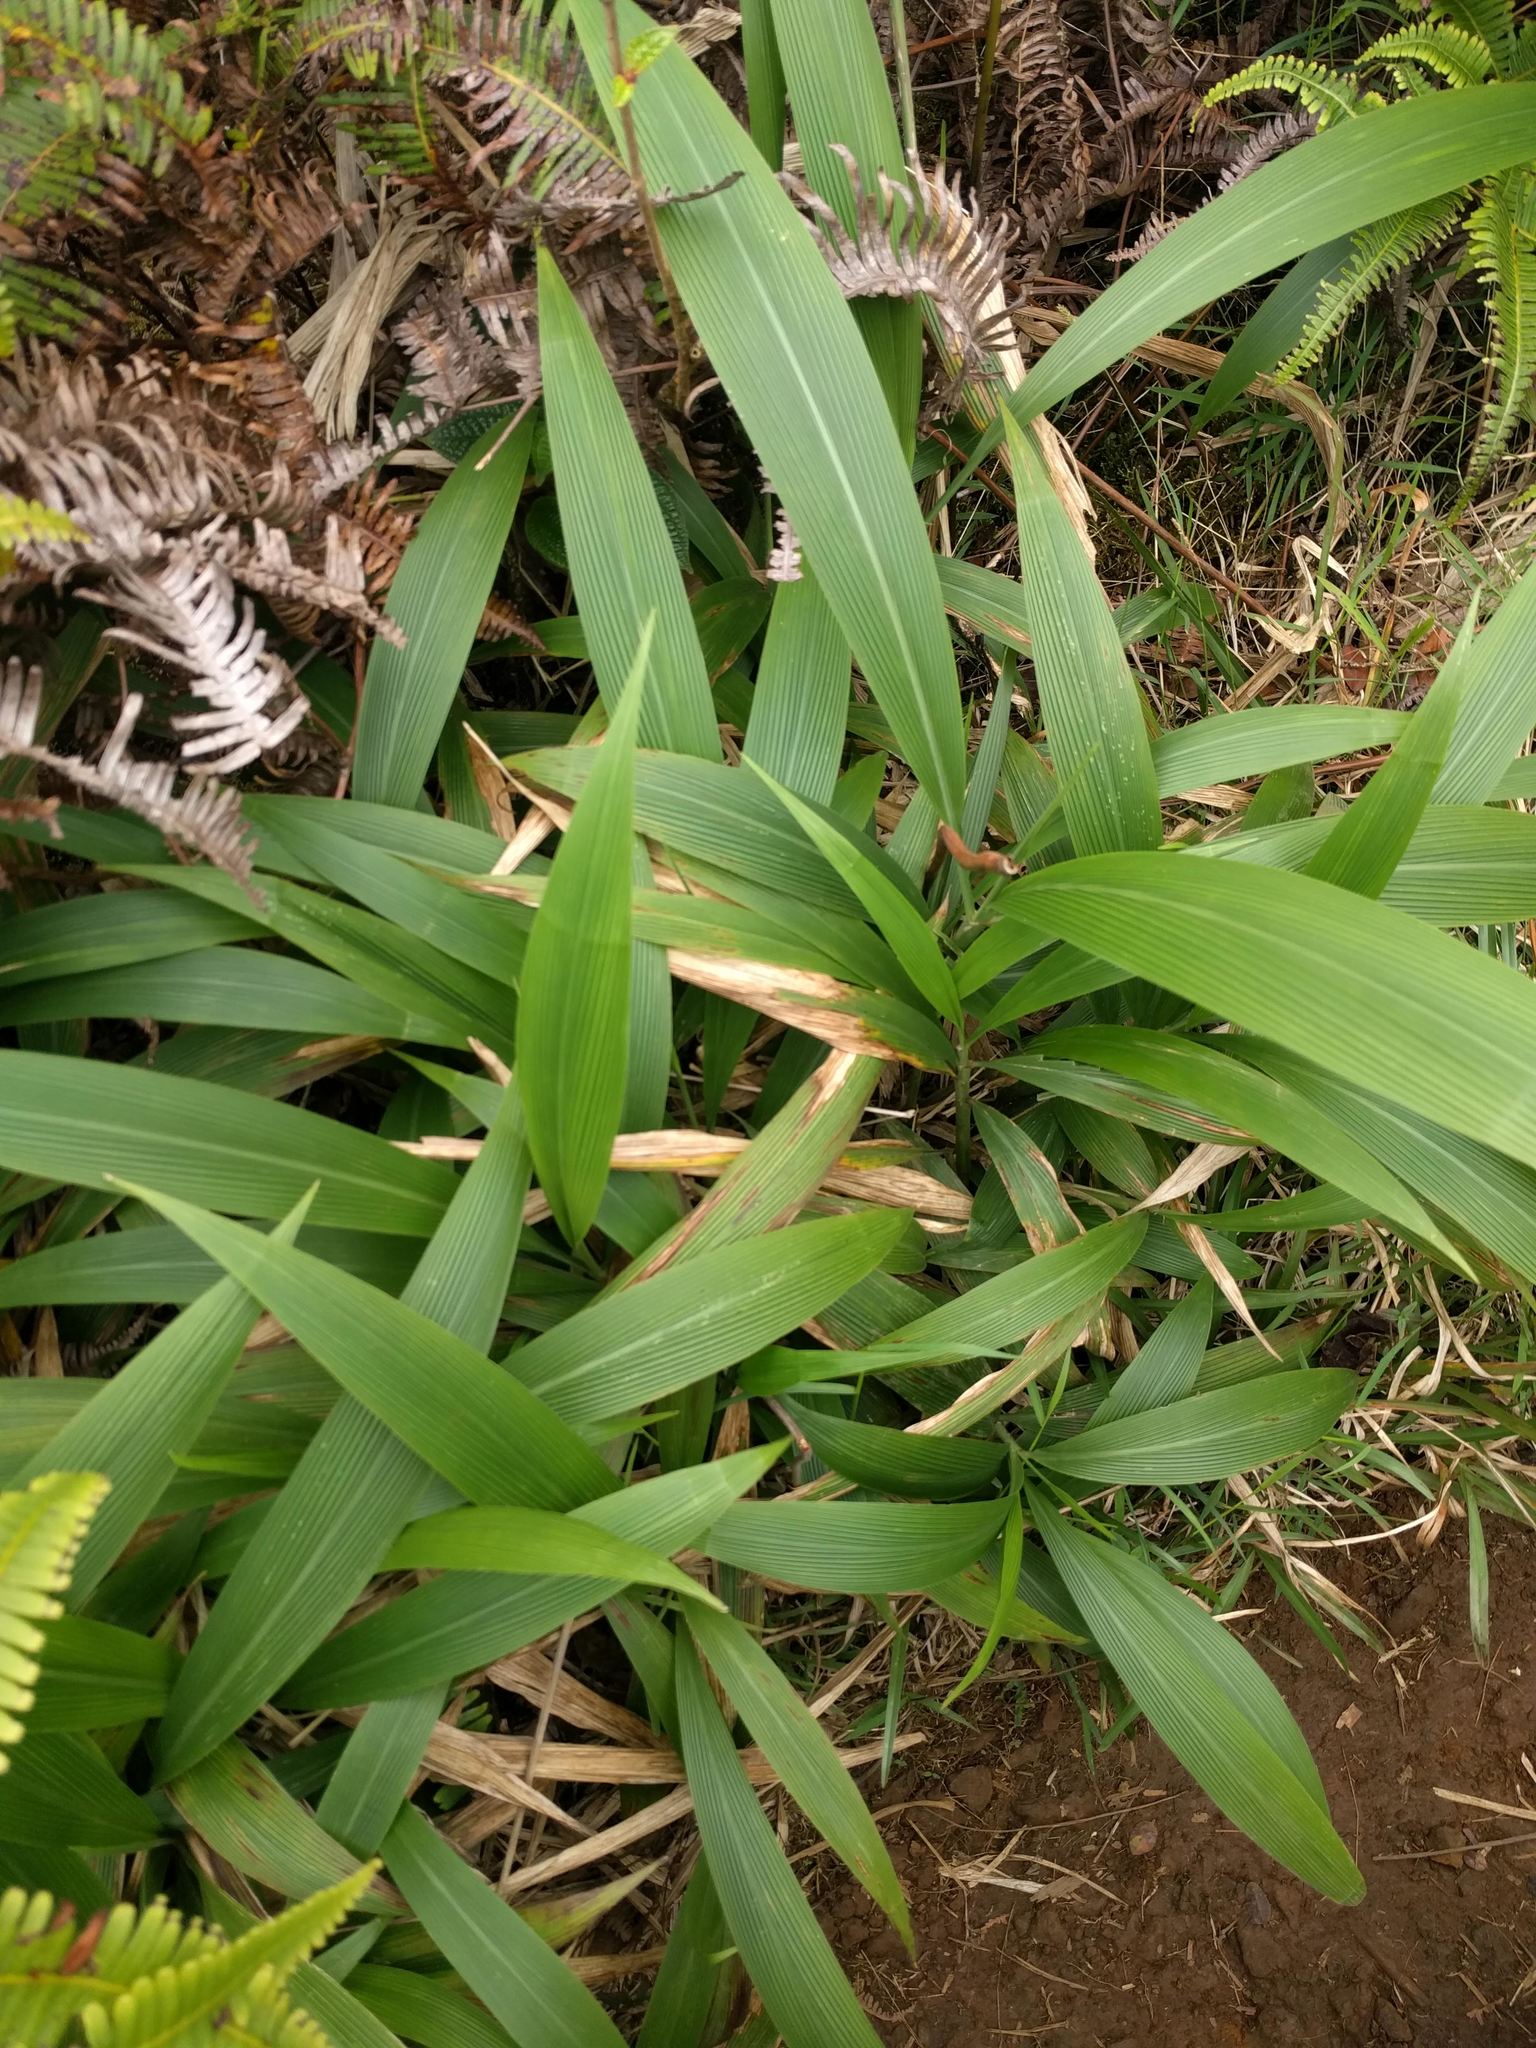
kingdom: Plantae
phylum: Tracheophyta
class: Liliopsida
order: Poales
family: Poaceae
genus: Setaria
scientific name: Setaria palmifolia
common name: Broadleaved bristlegrass
